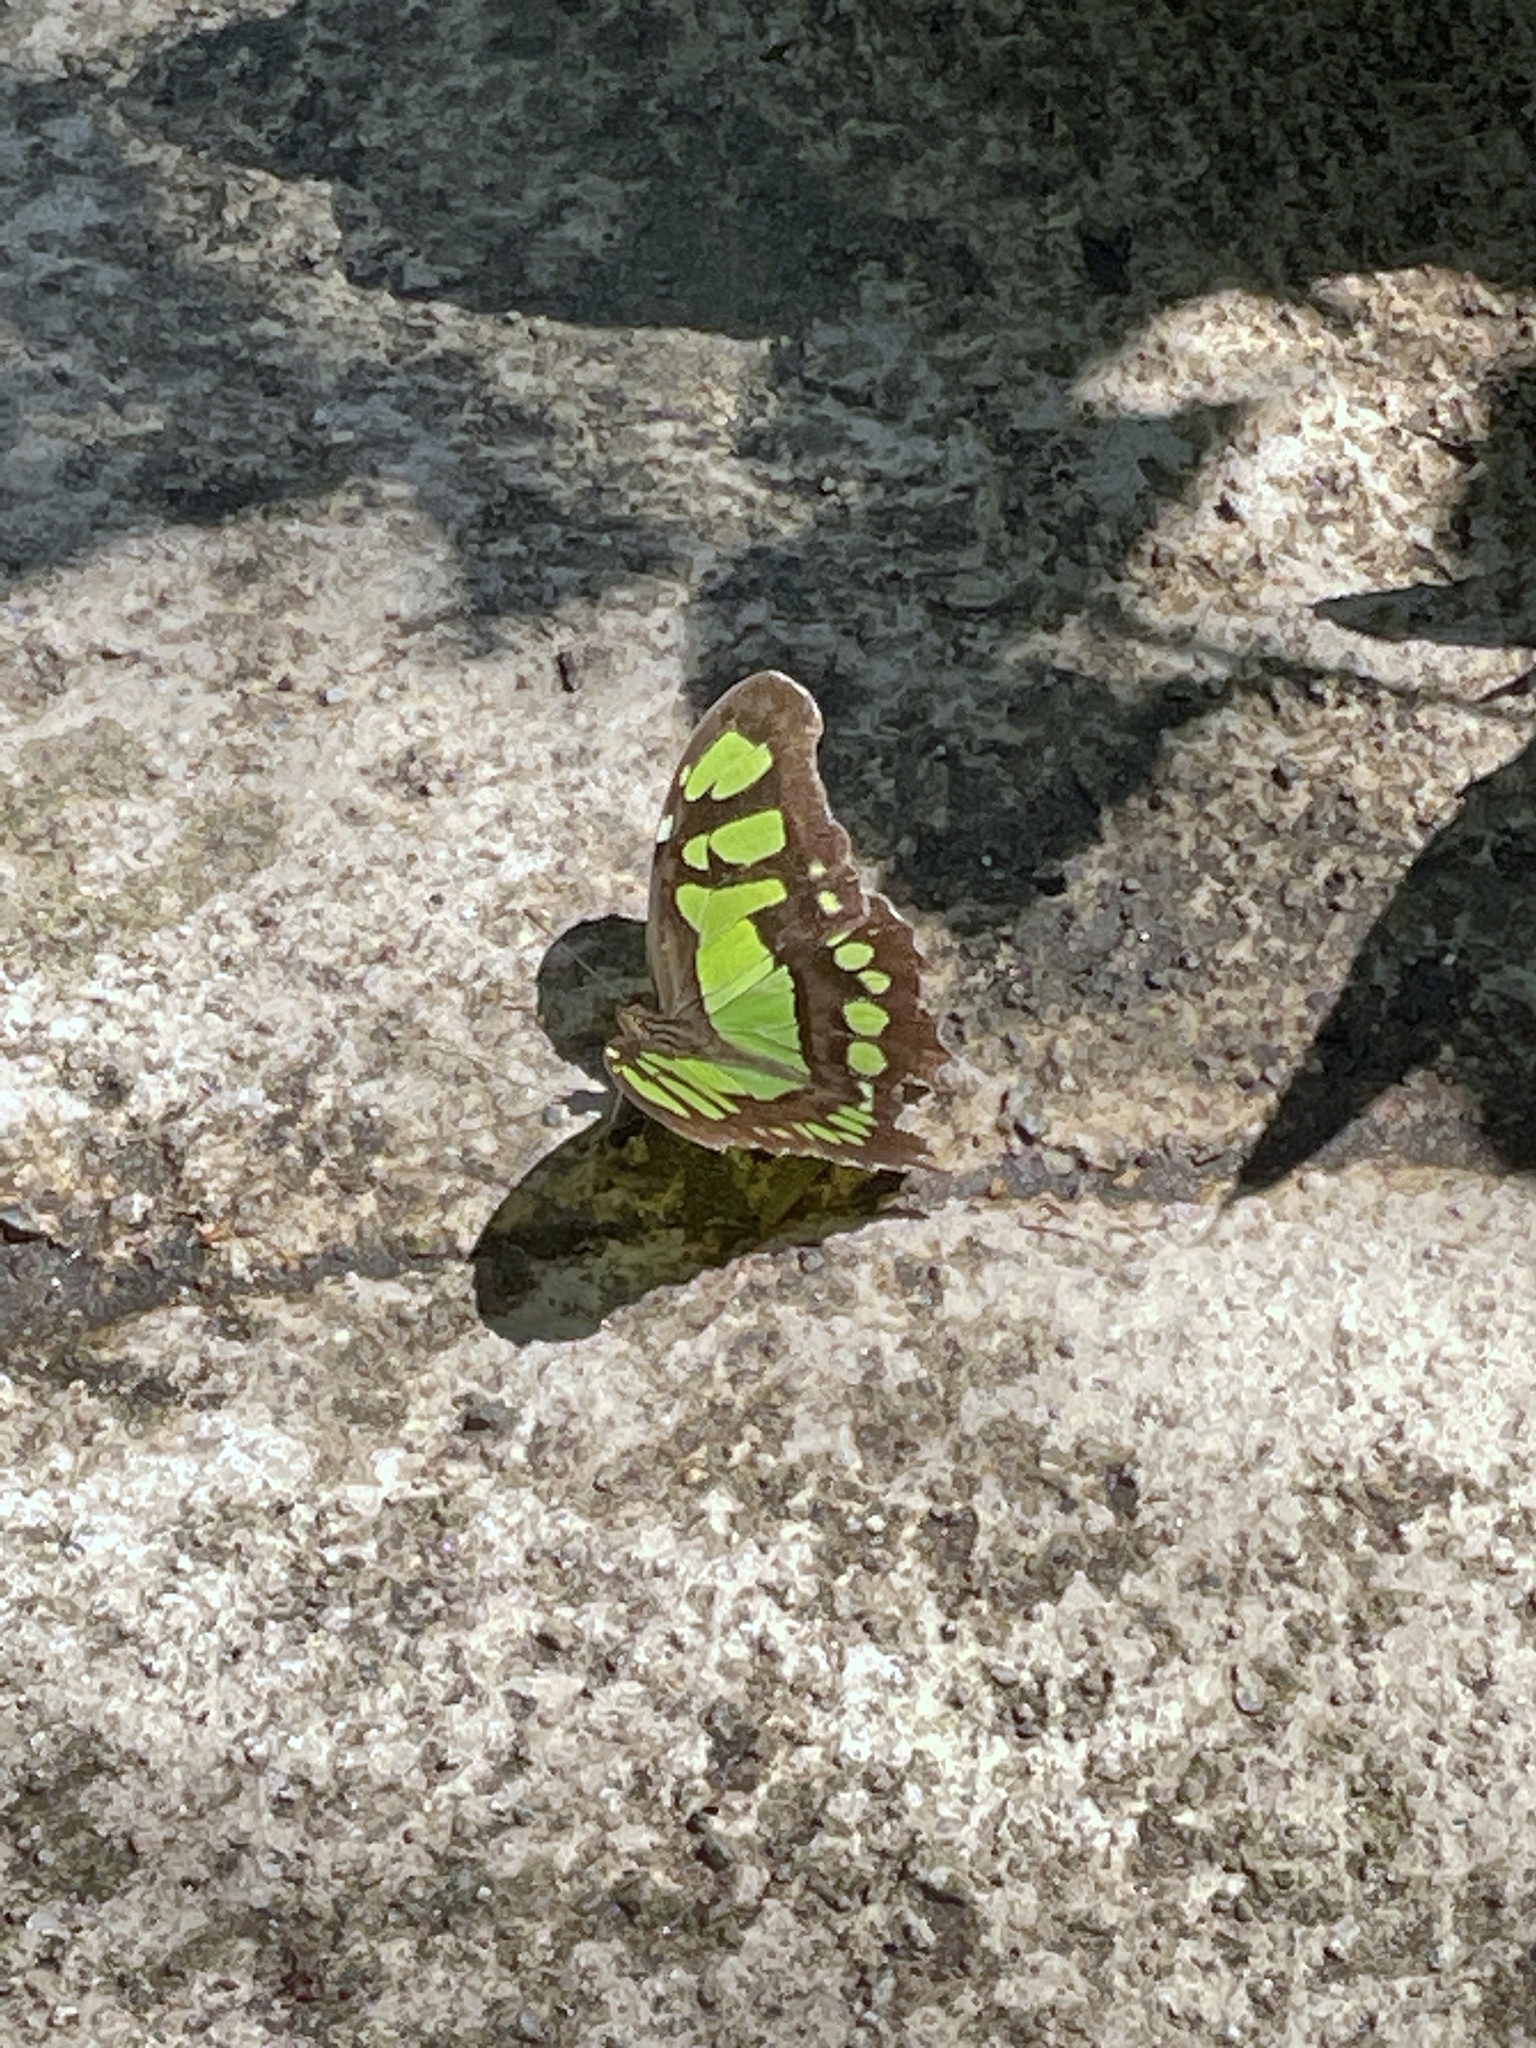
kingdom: Animalia
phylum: Arthropoda
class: Insecta
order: Lepidoptera
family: Nymphalidae
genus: Siproeta
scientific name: Siproeta stelenes
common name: Malachite
